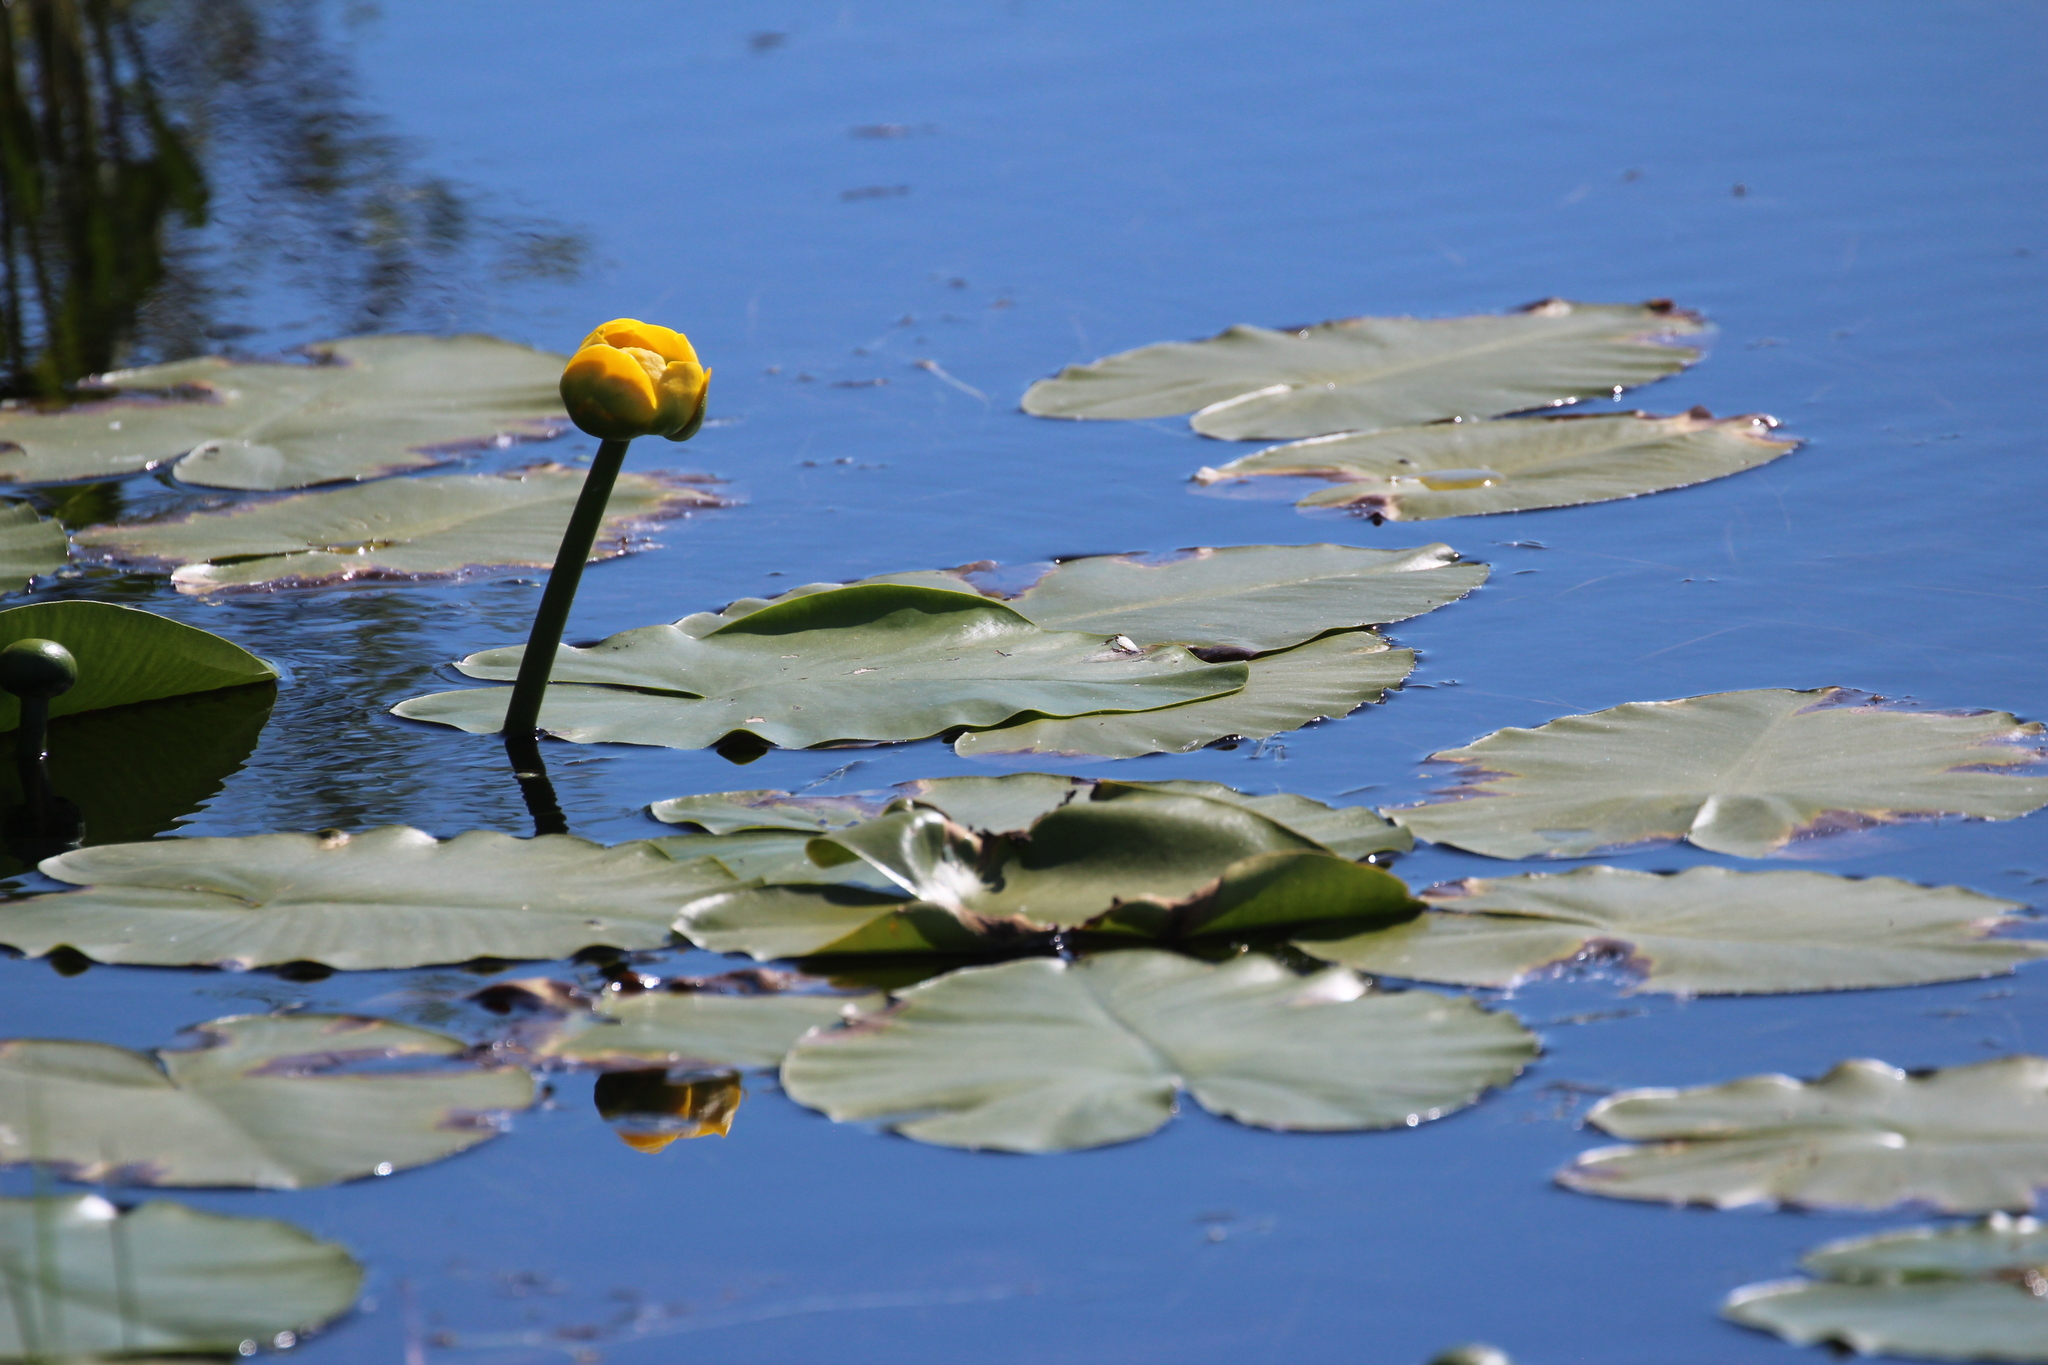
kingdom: Plantae
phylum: Tracheophyta
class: Magnoliopsida
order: Nymphaeales
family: Nymphaeaceae
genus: Nuphar
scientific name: Nuphar variegata
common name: Beaver-root
